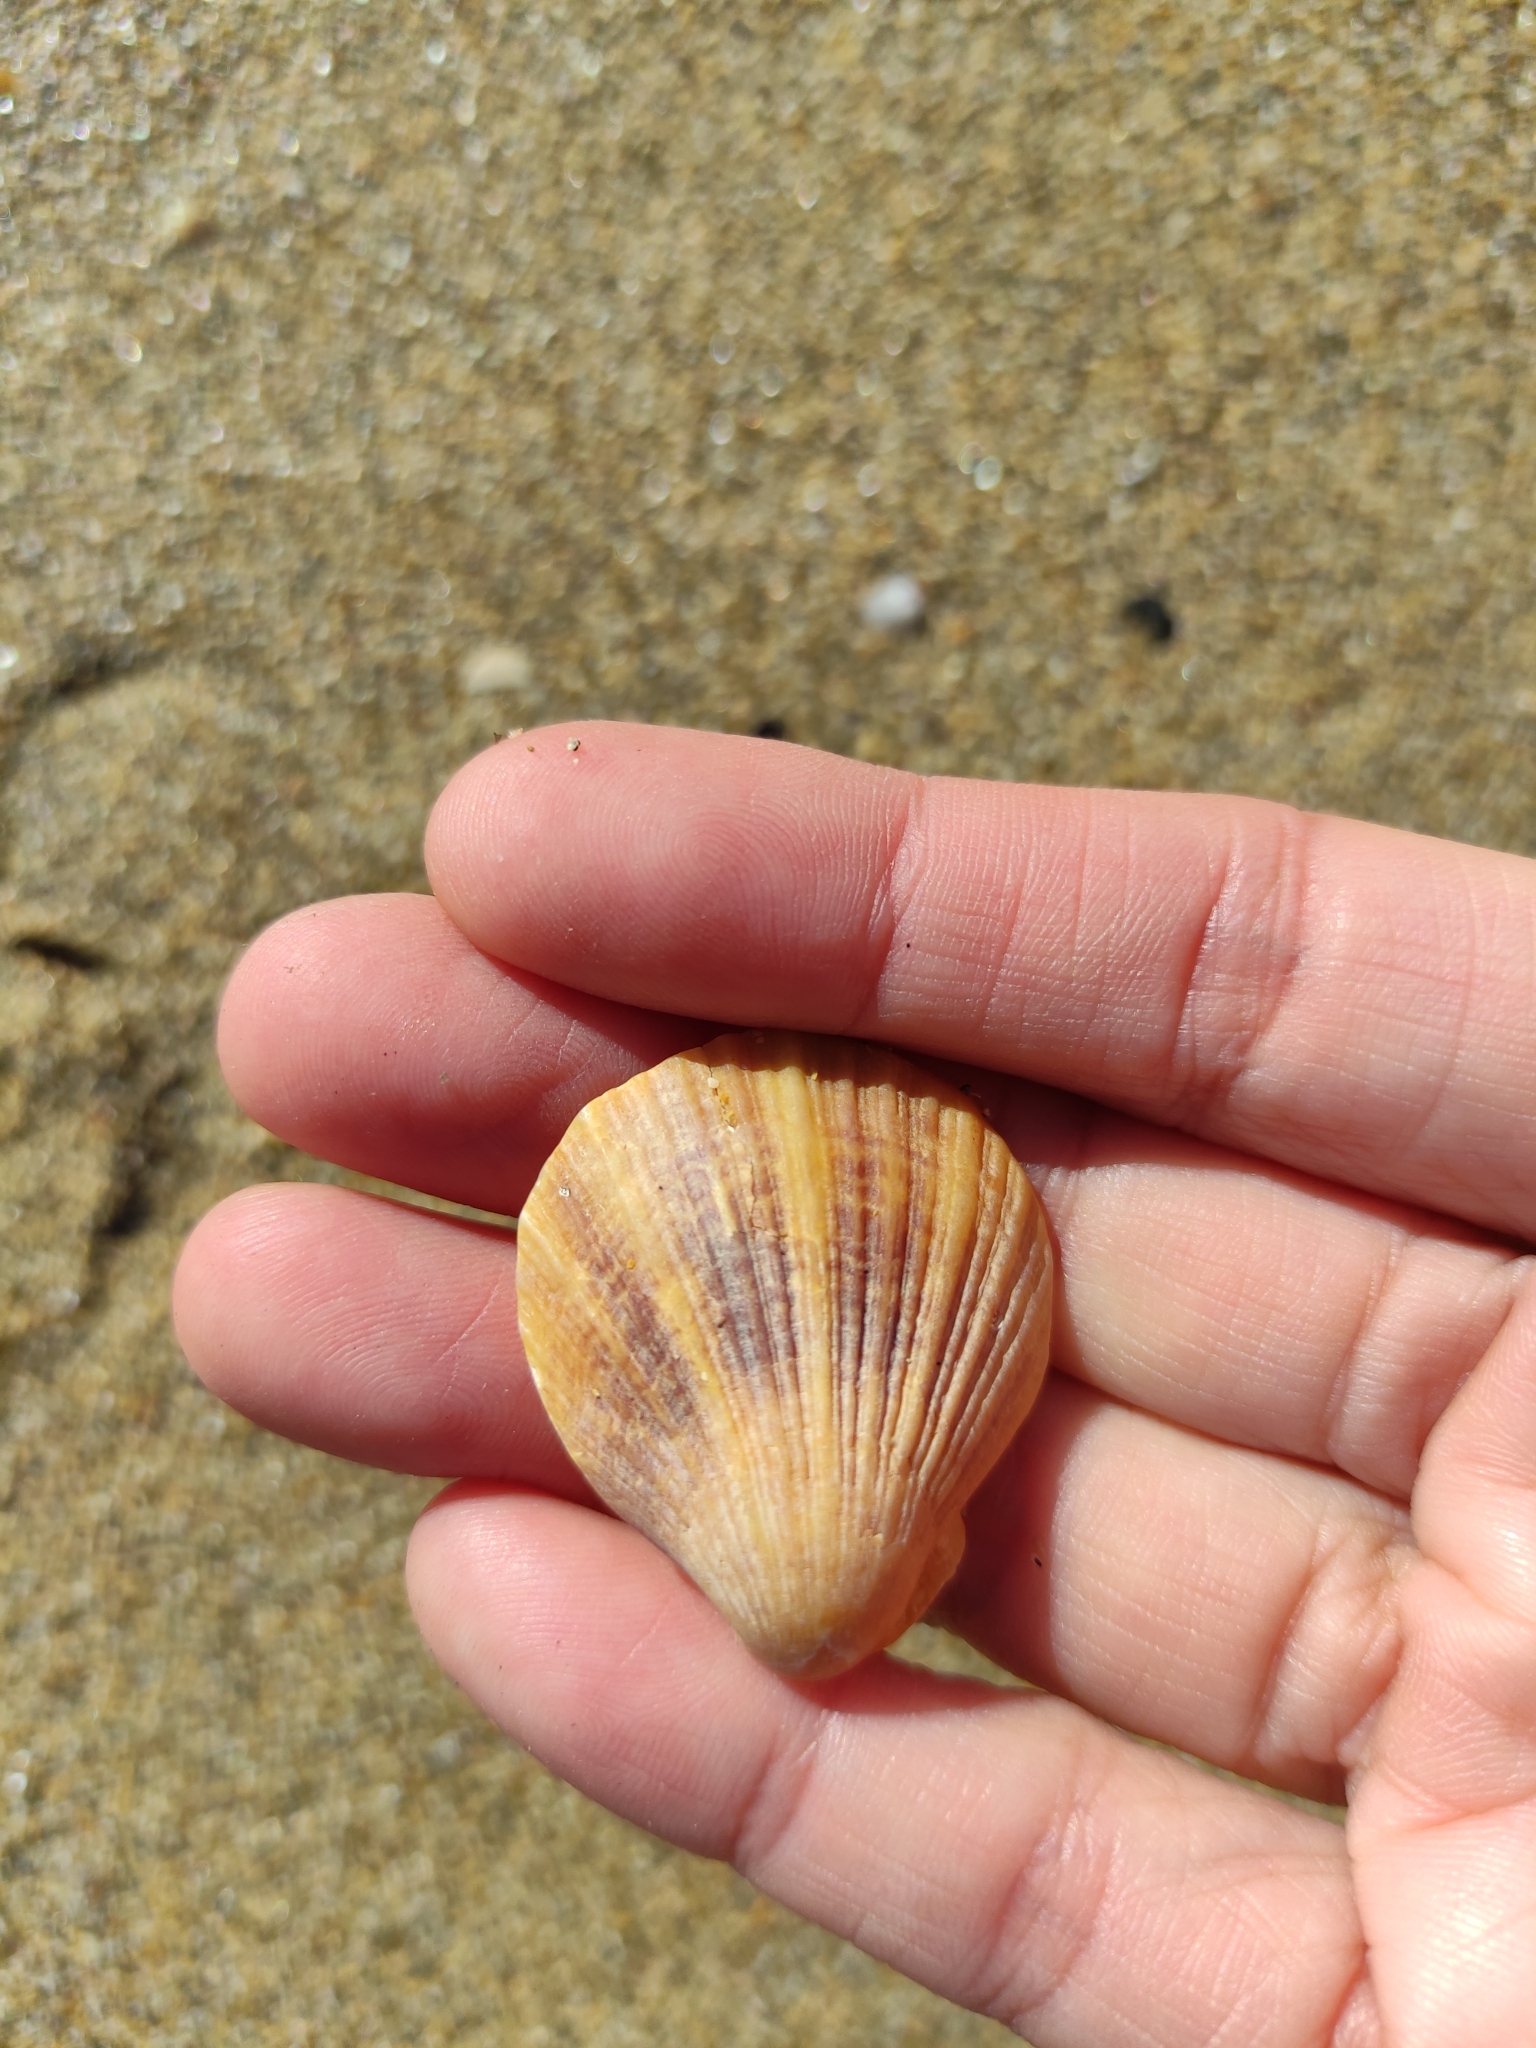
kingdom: Animalia
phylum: Mollusca
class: Bivalvia
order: Pectinida
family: Pectinidae
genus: Talochlamys
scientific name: Talochlamys zelandiae
